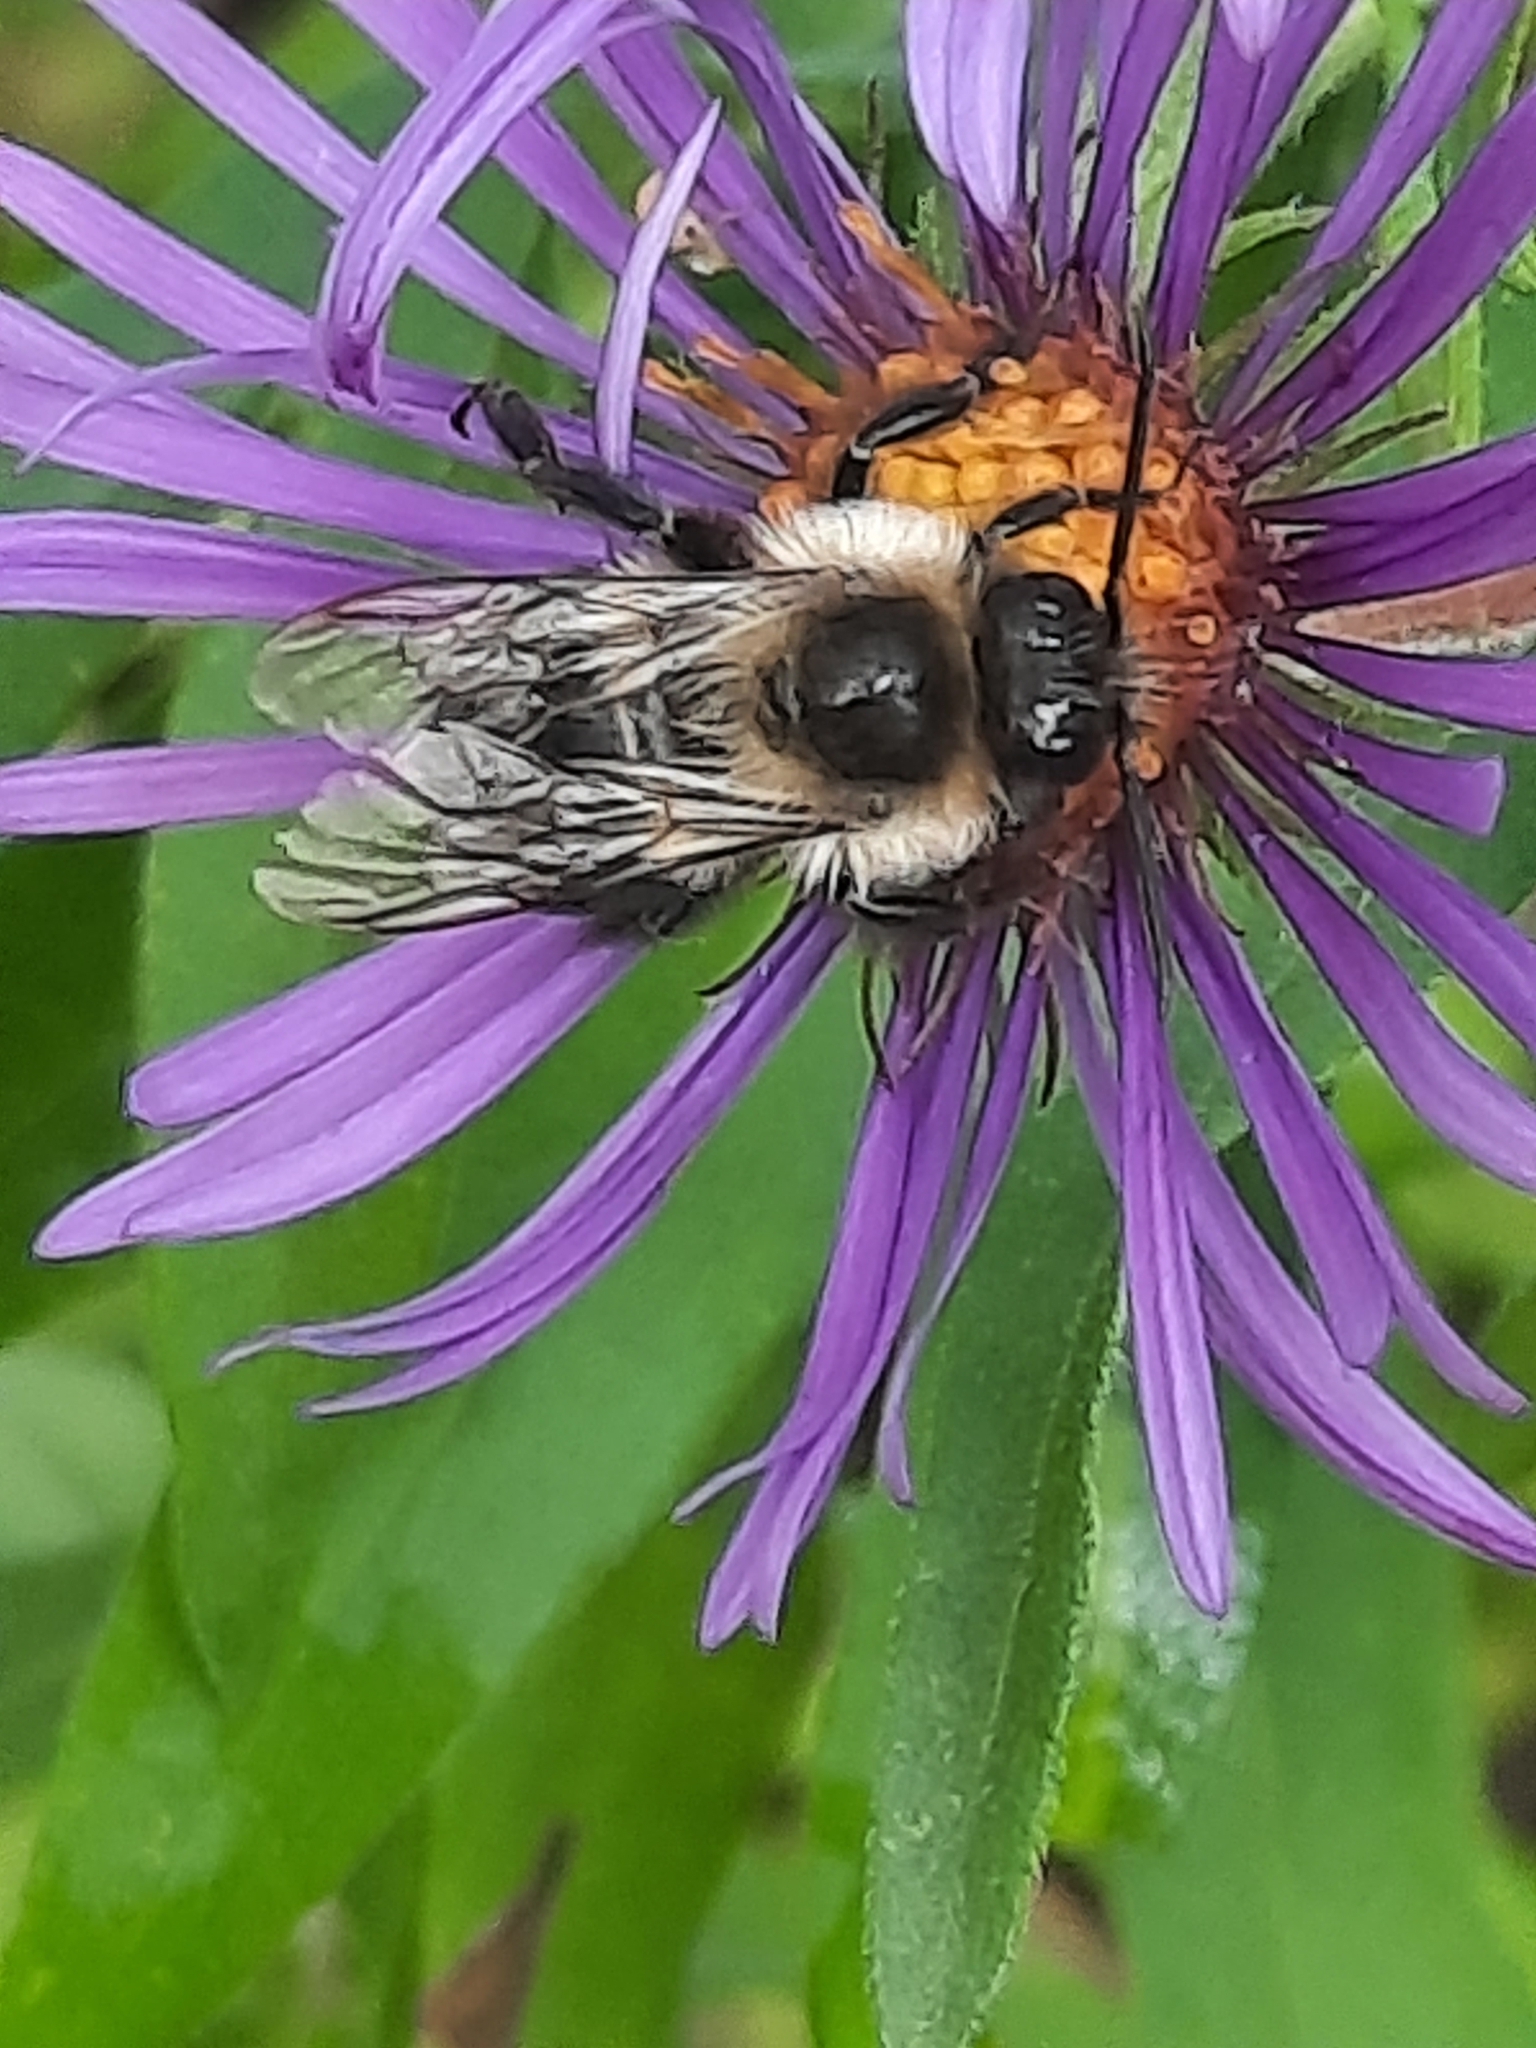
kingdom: Animalia
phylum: Arthropoda
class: Insecta
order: Hymenoptera
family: Apidae
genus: Bombus
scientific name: Bombus impatiens
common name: Common eastern bumble bee
